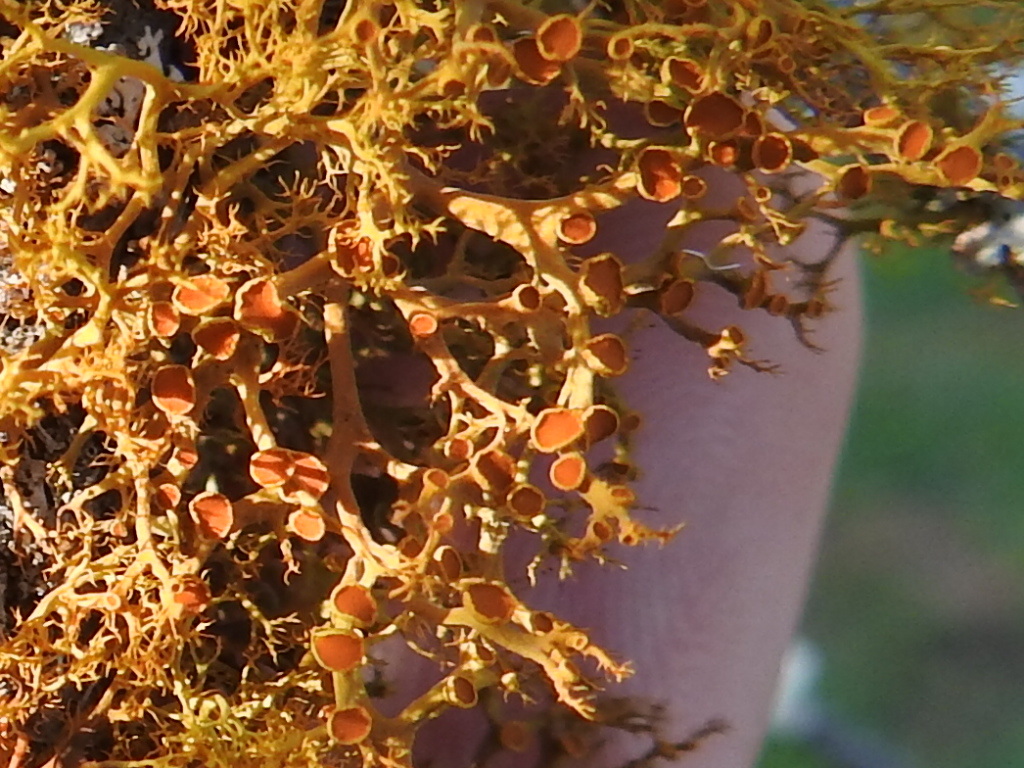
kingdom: Fungi
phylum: Ascomycota
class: Lecanoromycetes
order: Teloschistales
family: Teloschistaceae
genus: Teloschistes
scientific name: Teloschistes exilis
